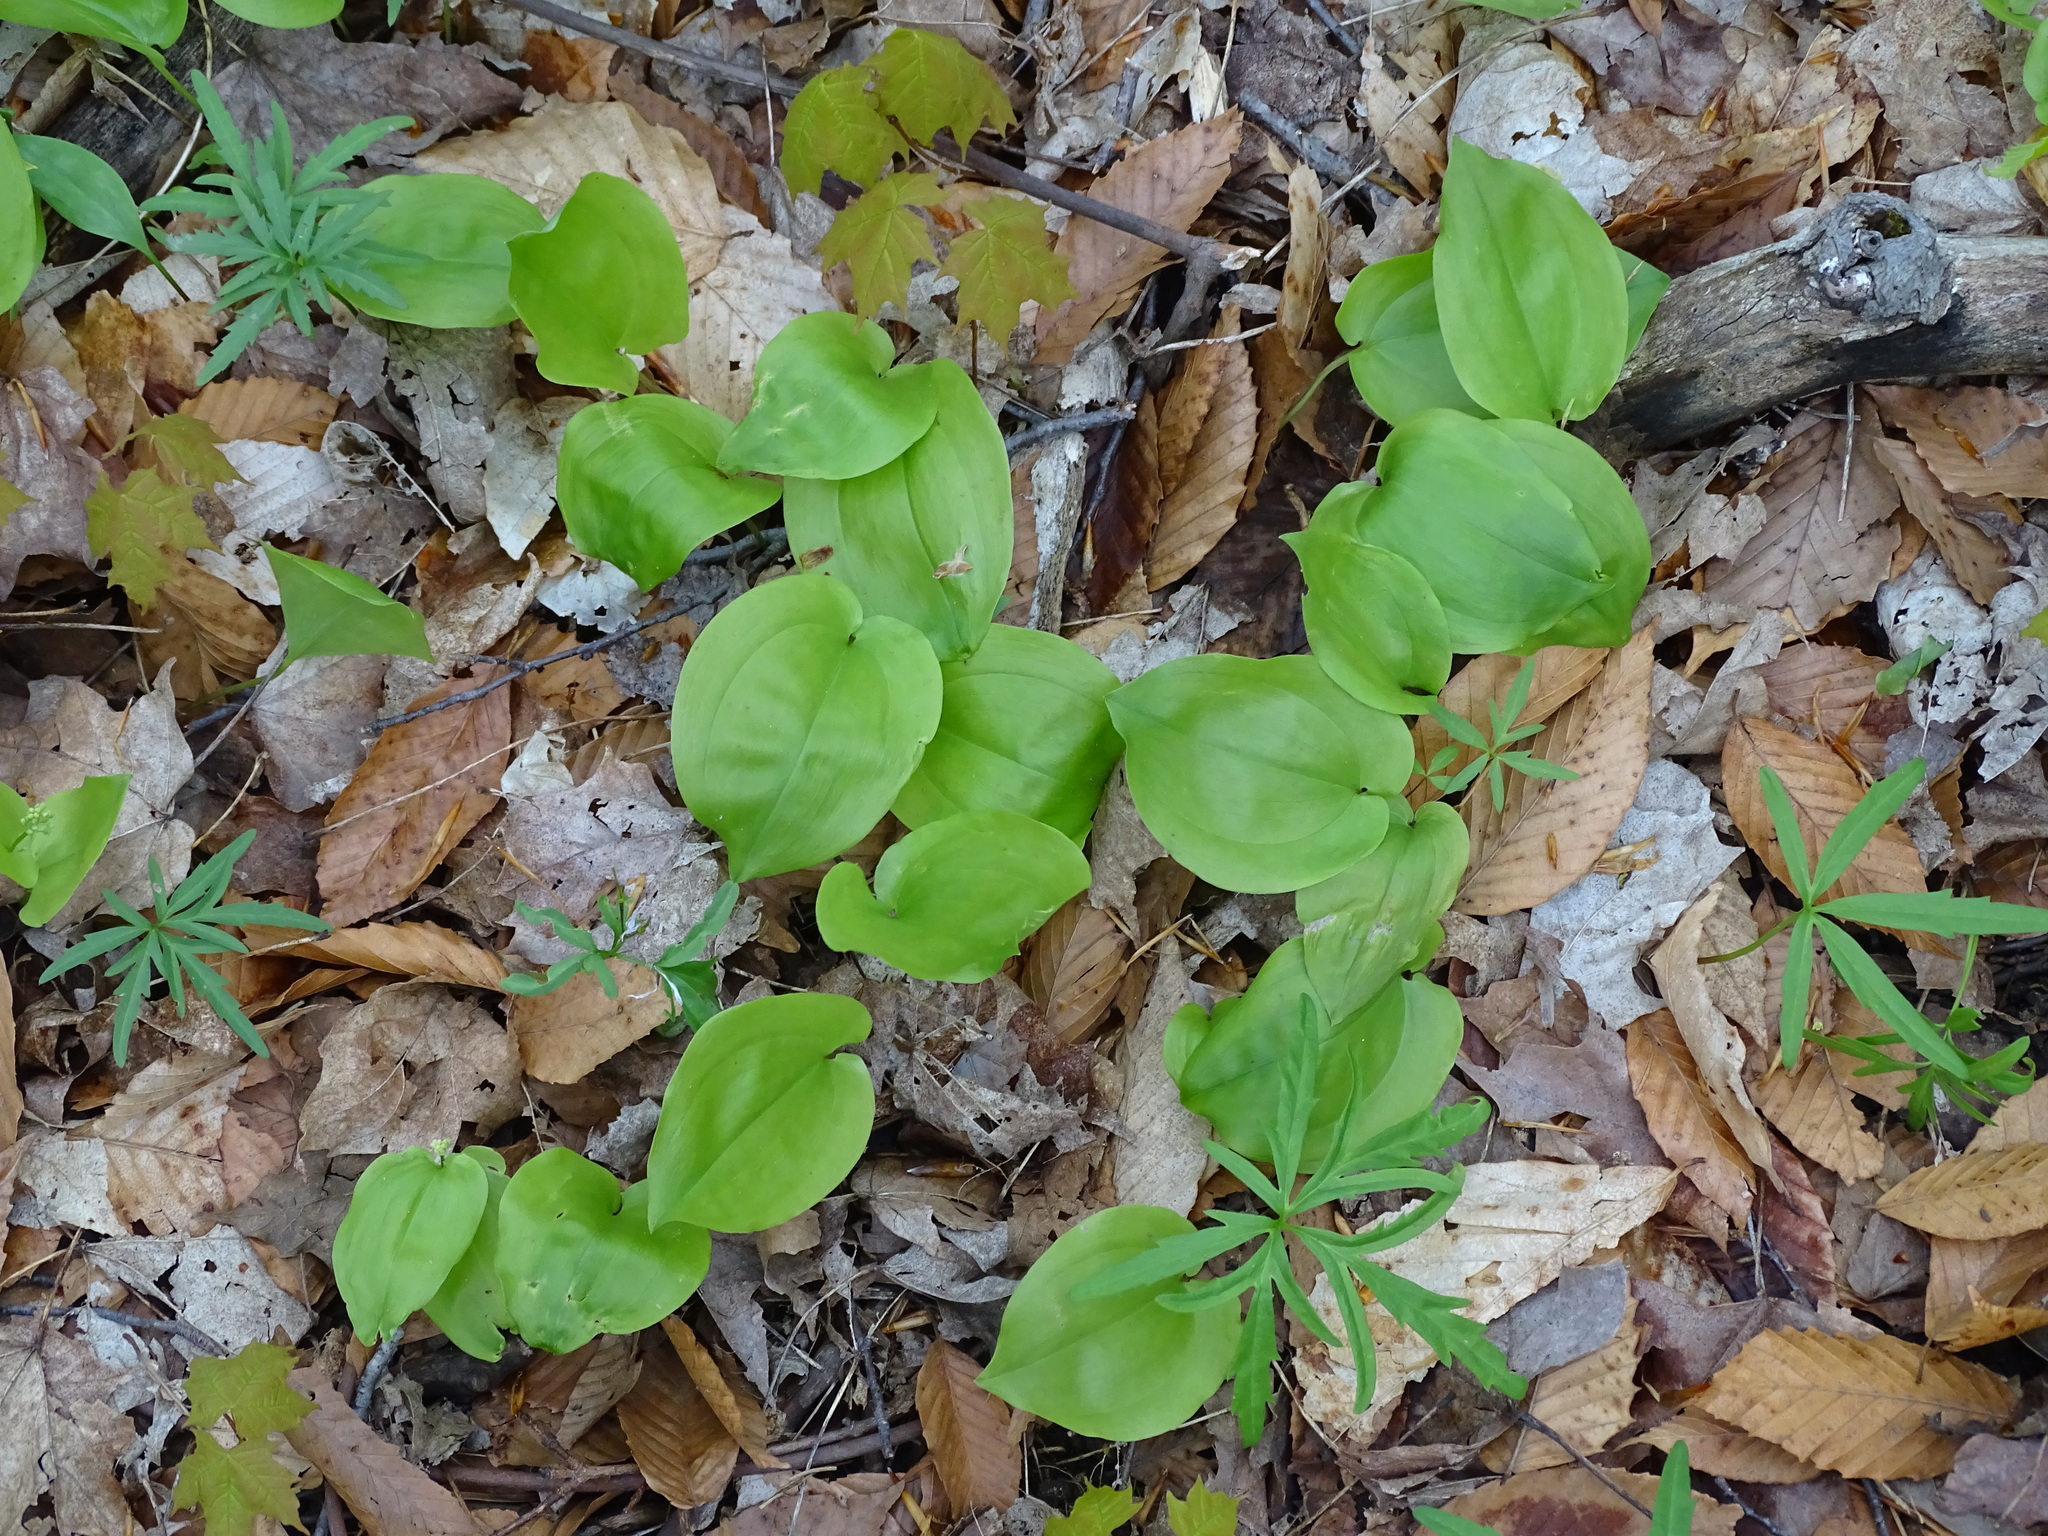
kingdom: Plantae
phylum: Tracheophyta
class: Liliopsida
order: Asparagales
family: Asparagaceae
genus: Maianthemum
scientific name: Maianthemum canadense
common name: False lily-of-the-valley
